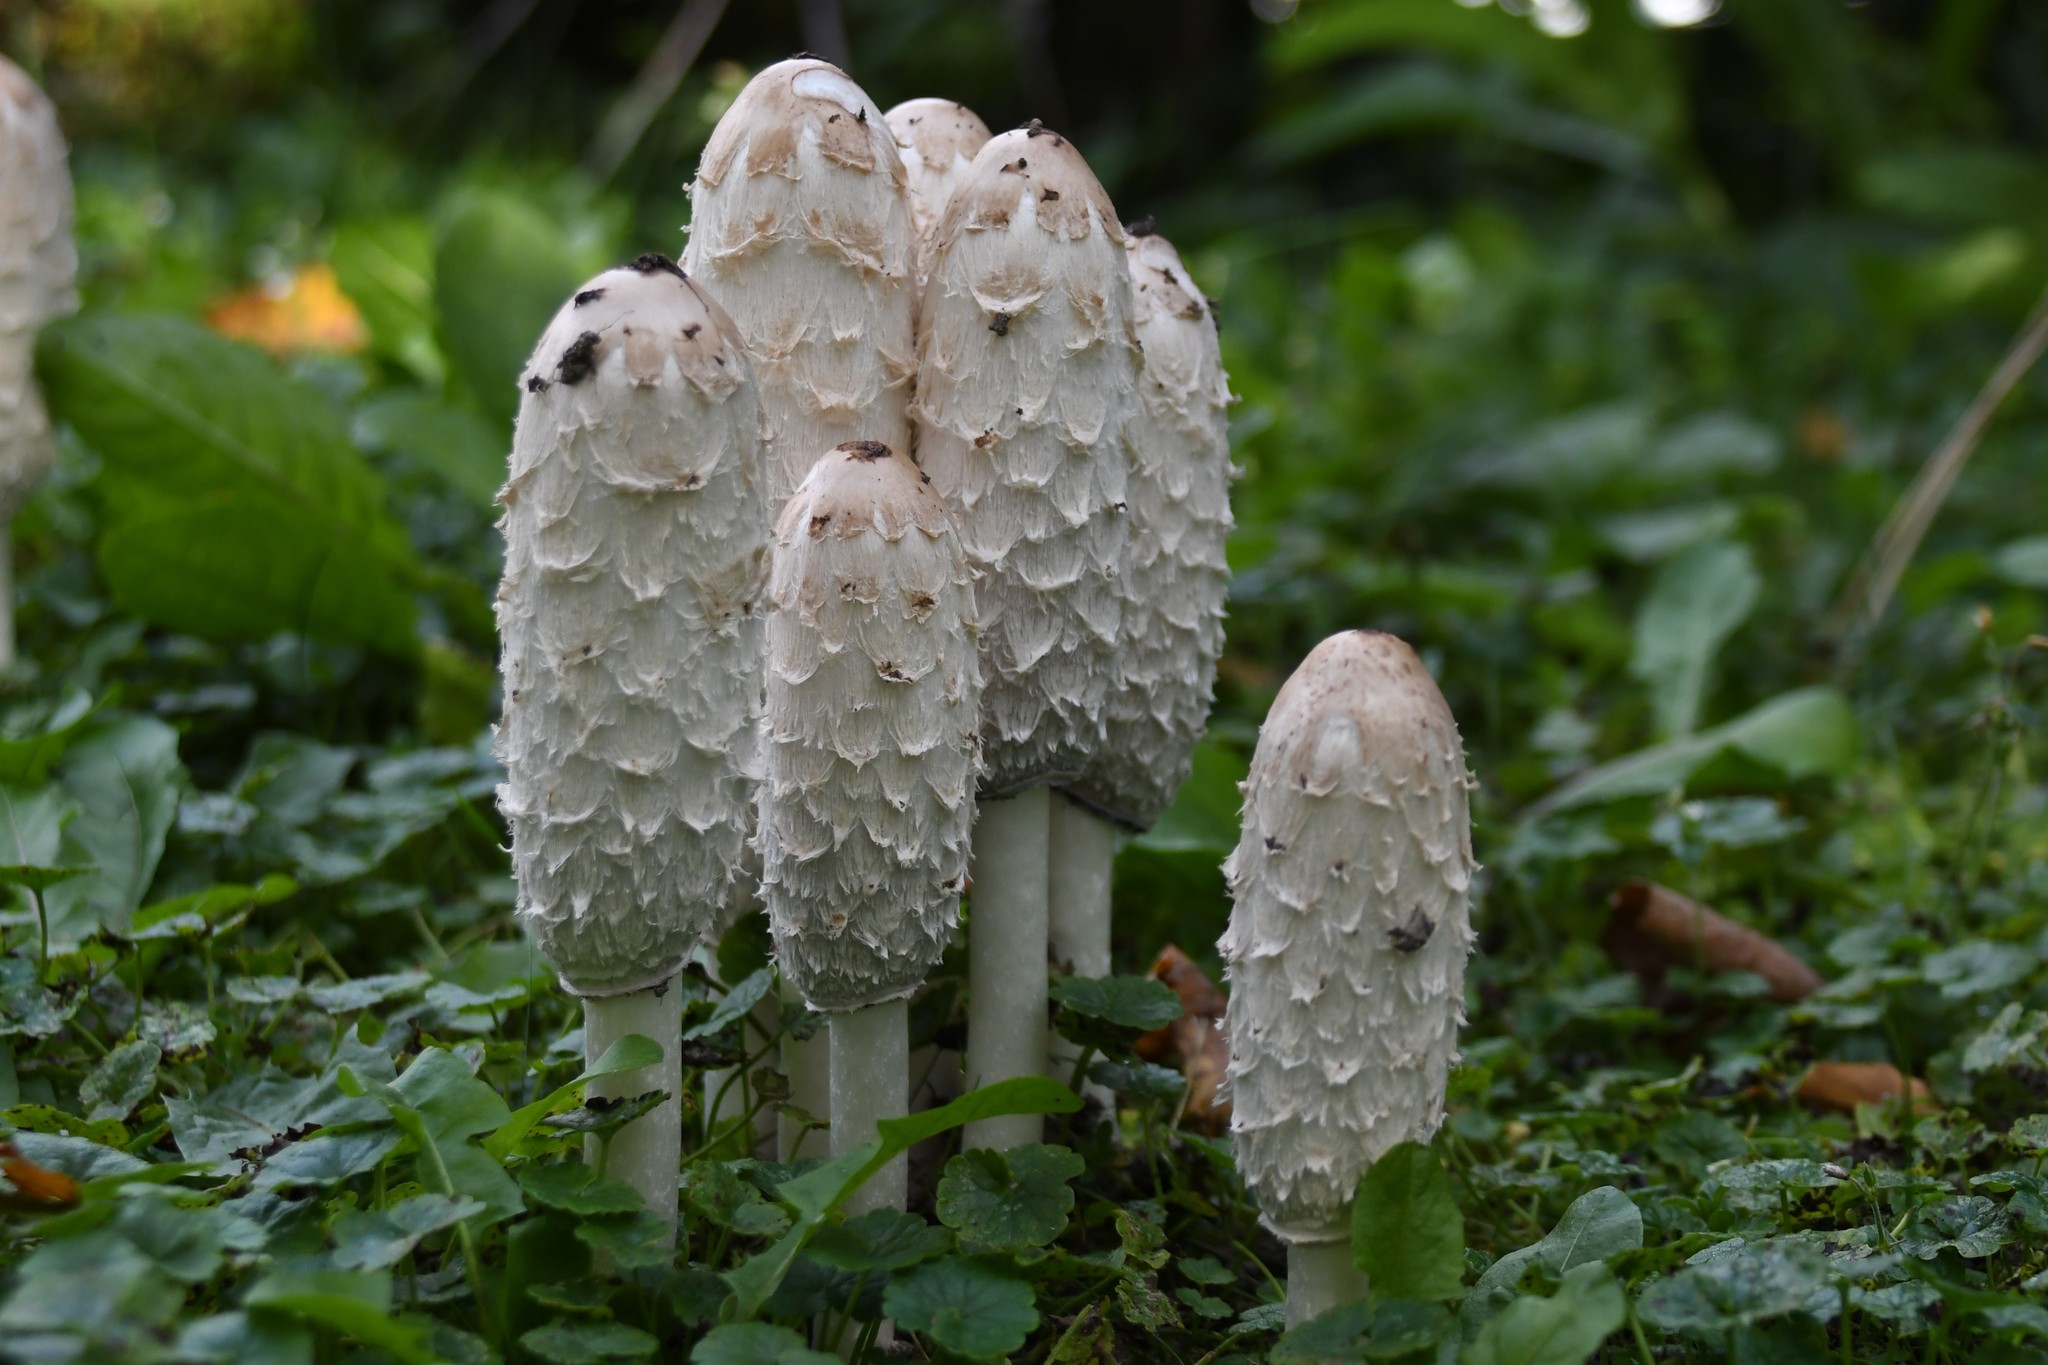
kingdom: Fungi
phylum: Basidiomycota
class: Agaricomycetes
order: Agaricales
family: Agaricaceae
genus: Coprinus
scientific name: Coprinus comatus
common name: Lawyer's wig
